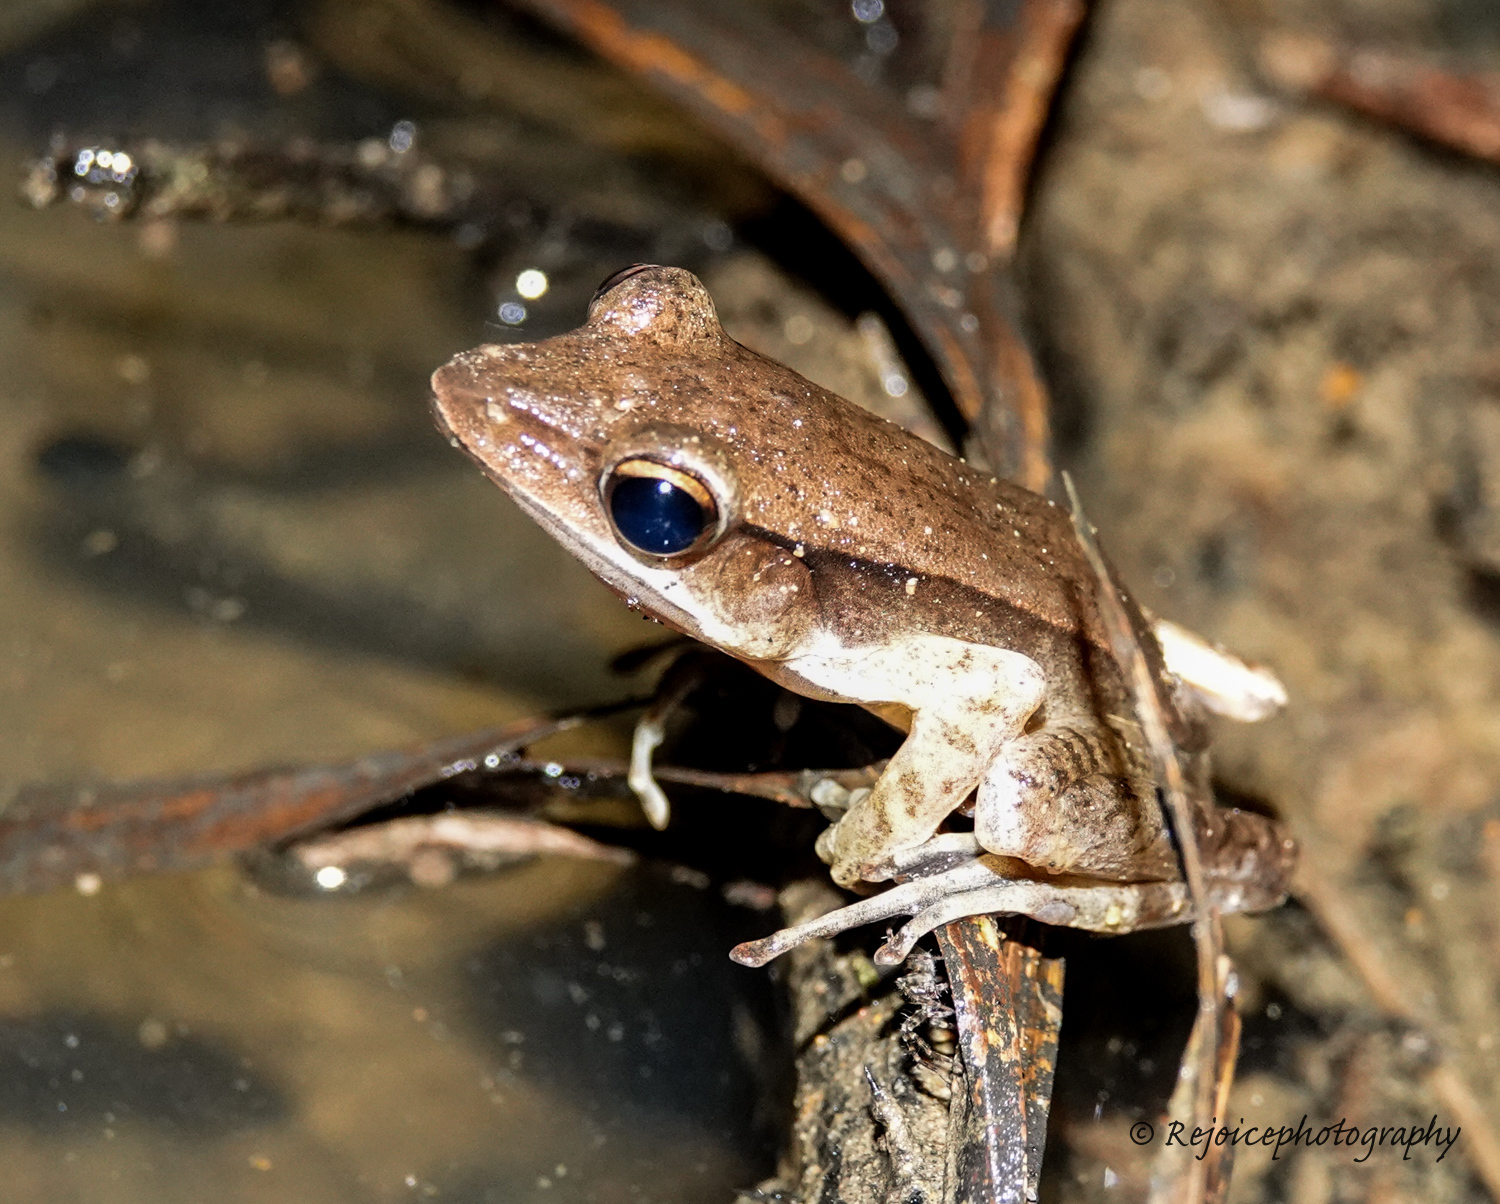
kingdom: Animalia
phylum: Chordata
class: Amphibia
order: Anura
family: Ranidae
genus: Clinotarsus
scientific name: Clinotarsus alticola
